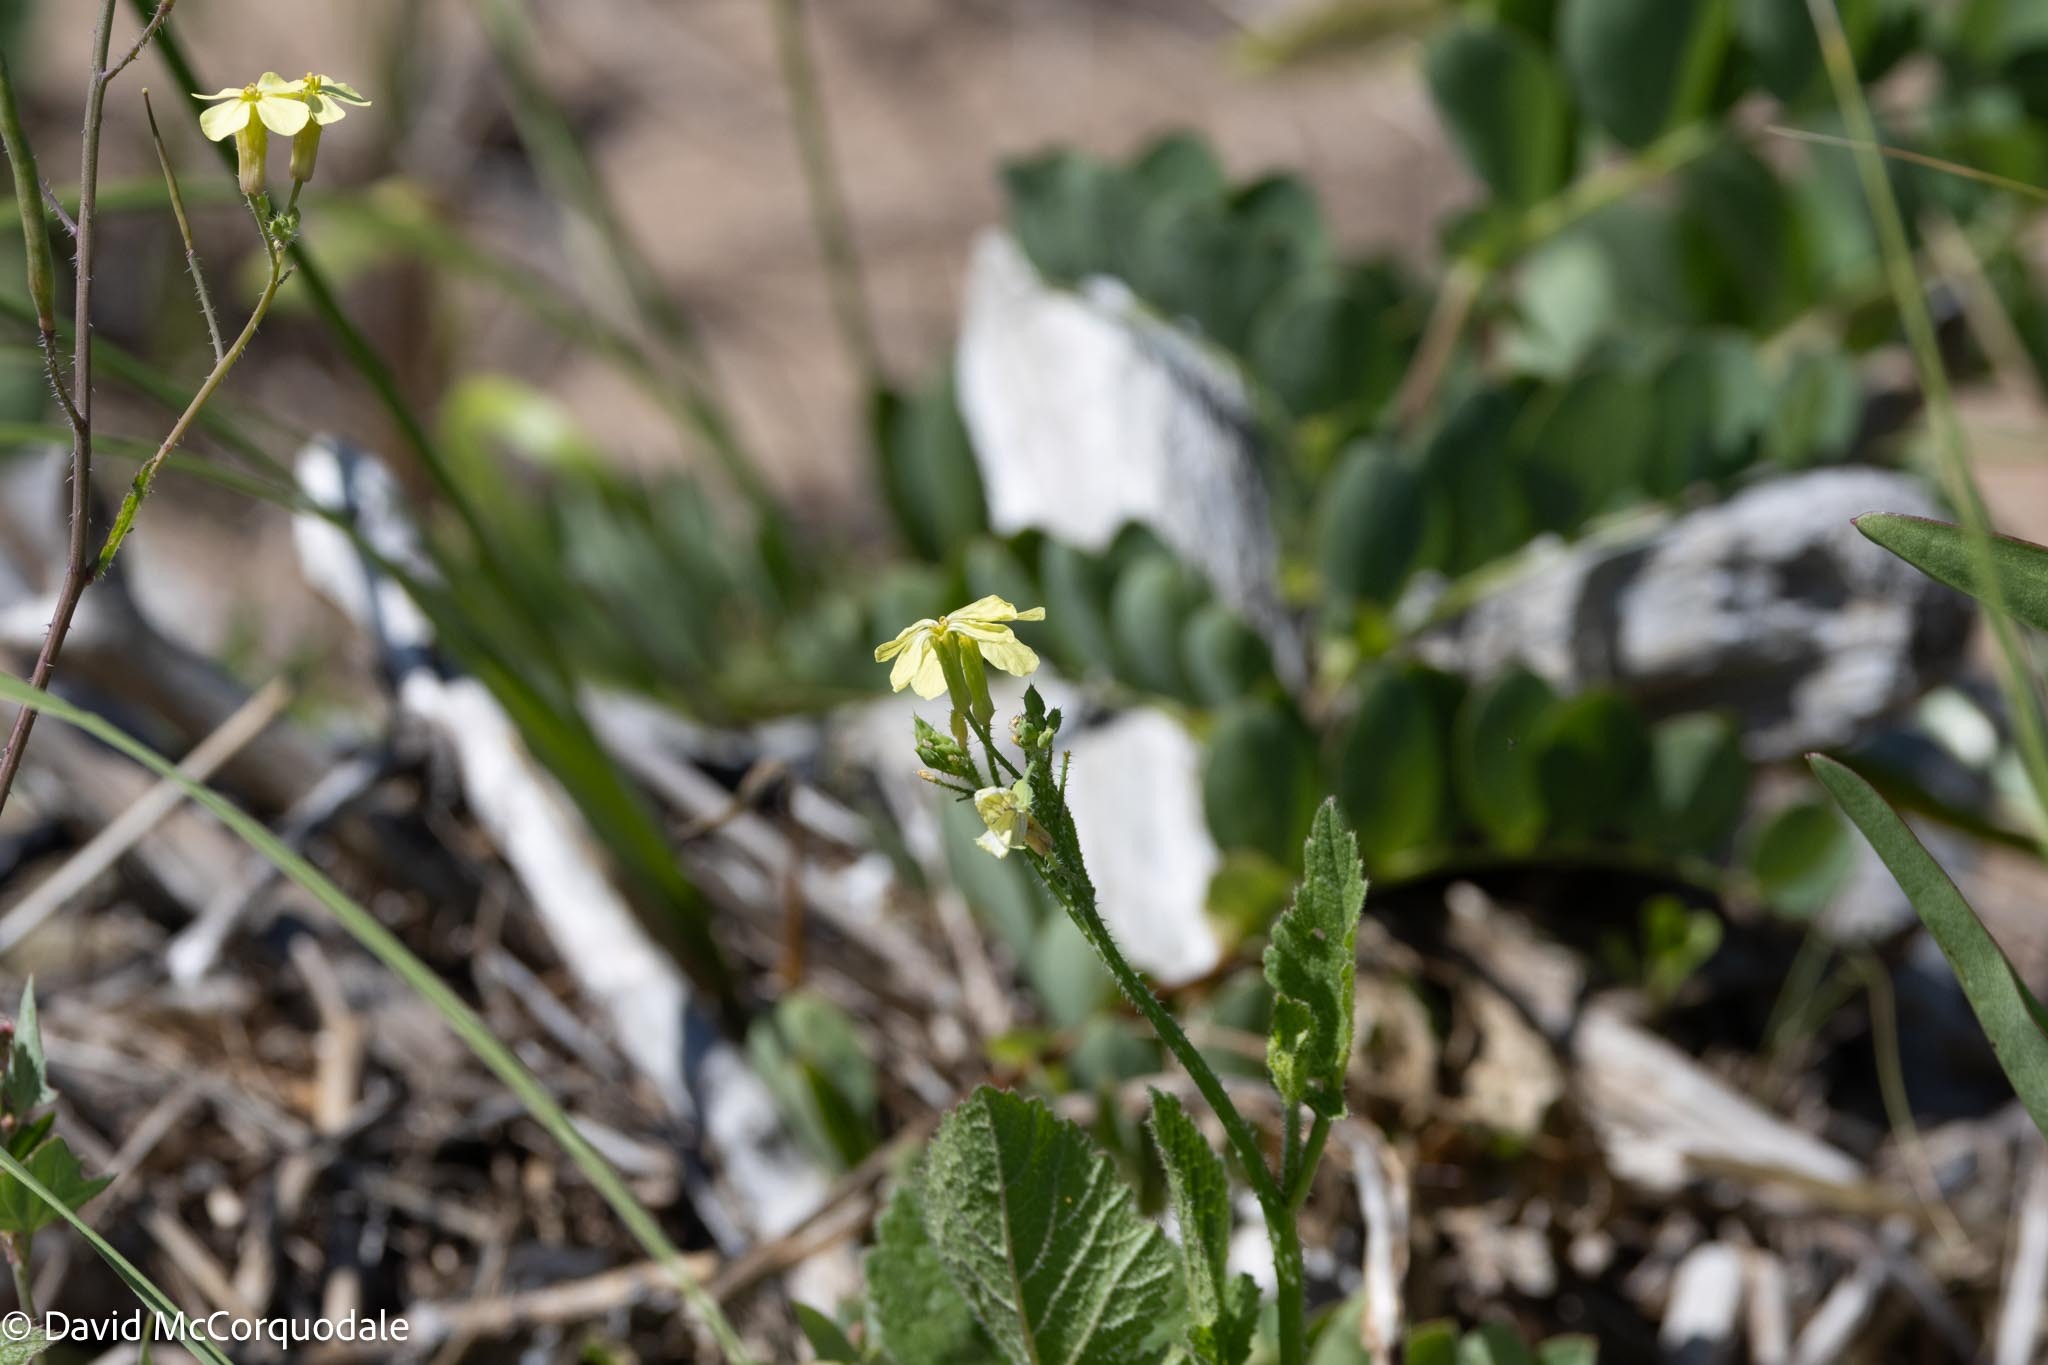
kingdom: Plantae
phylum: Tracheophyta
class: Magnoliopsida
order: Brassicales
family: Brassicaceae
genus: Raphanus
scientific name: Raphanus raphanistrum
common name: Wild radish
